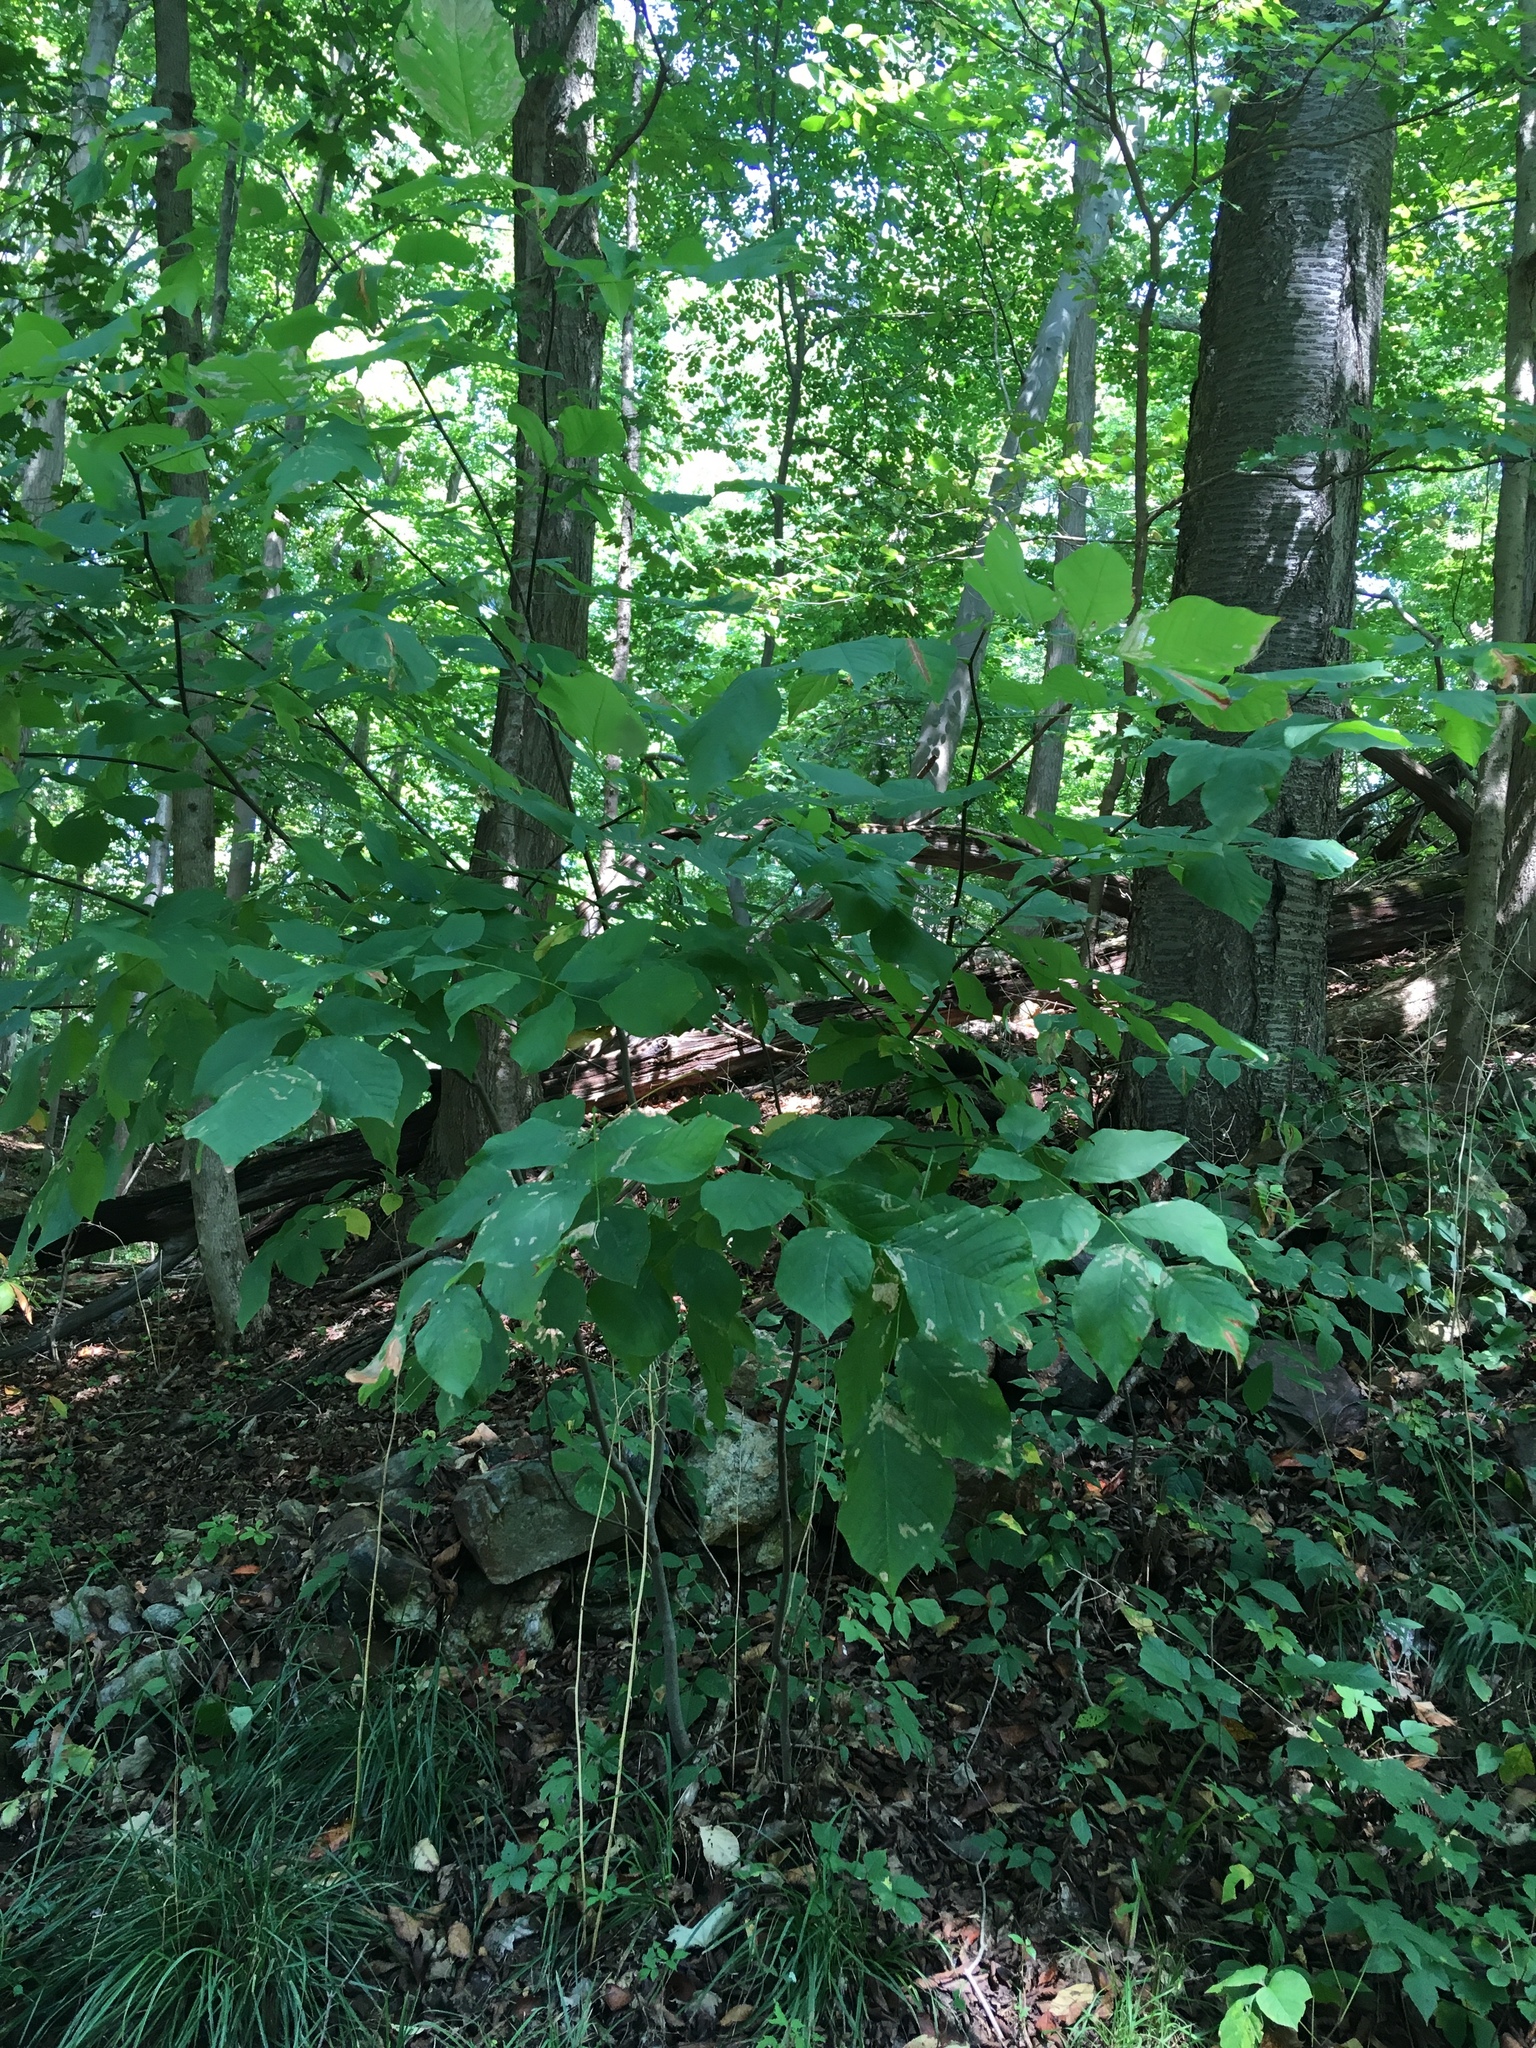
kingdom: Plantae
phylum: Tracheophyta
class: Magnoliopsida
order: Fabales
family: Fabaceae
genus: Cladrastis
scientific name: Cladrastis kentukea
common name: Kentucky yellow-wood
